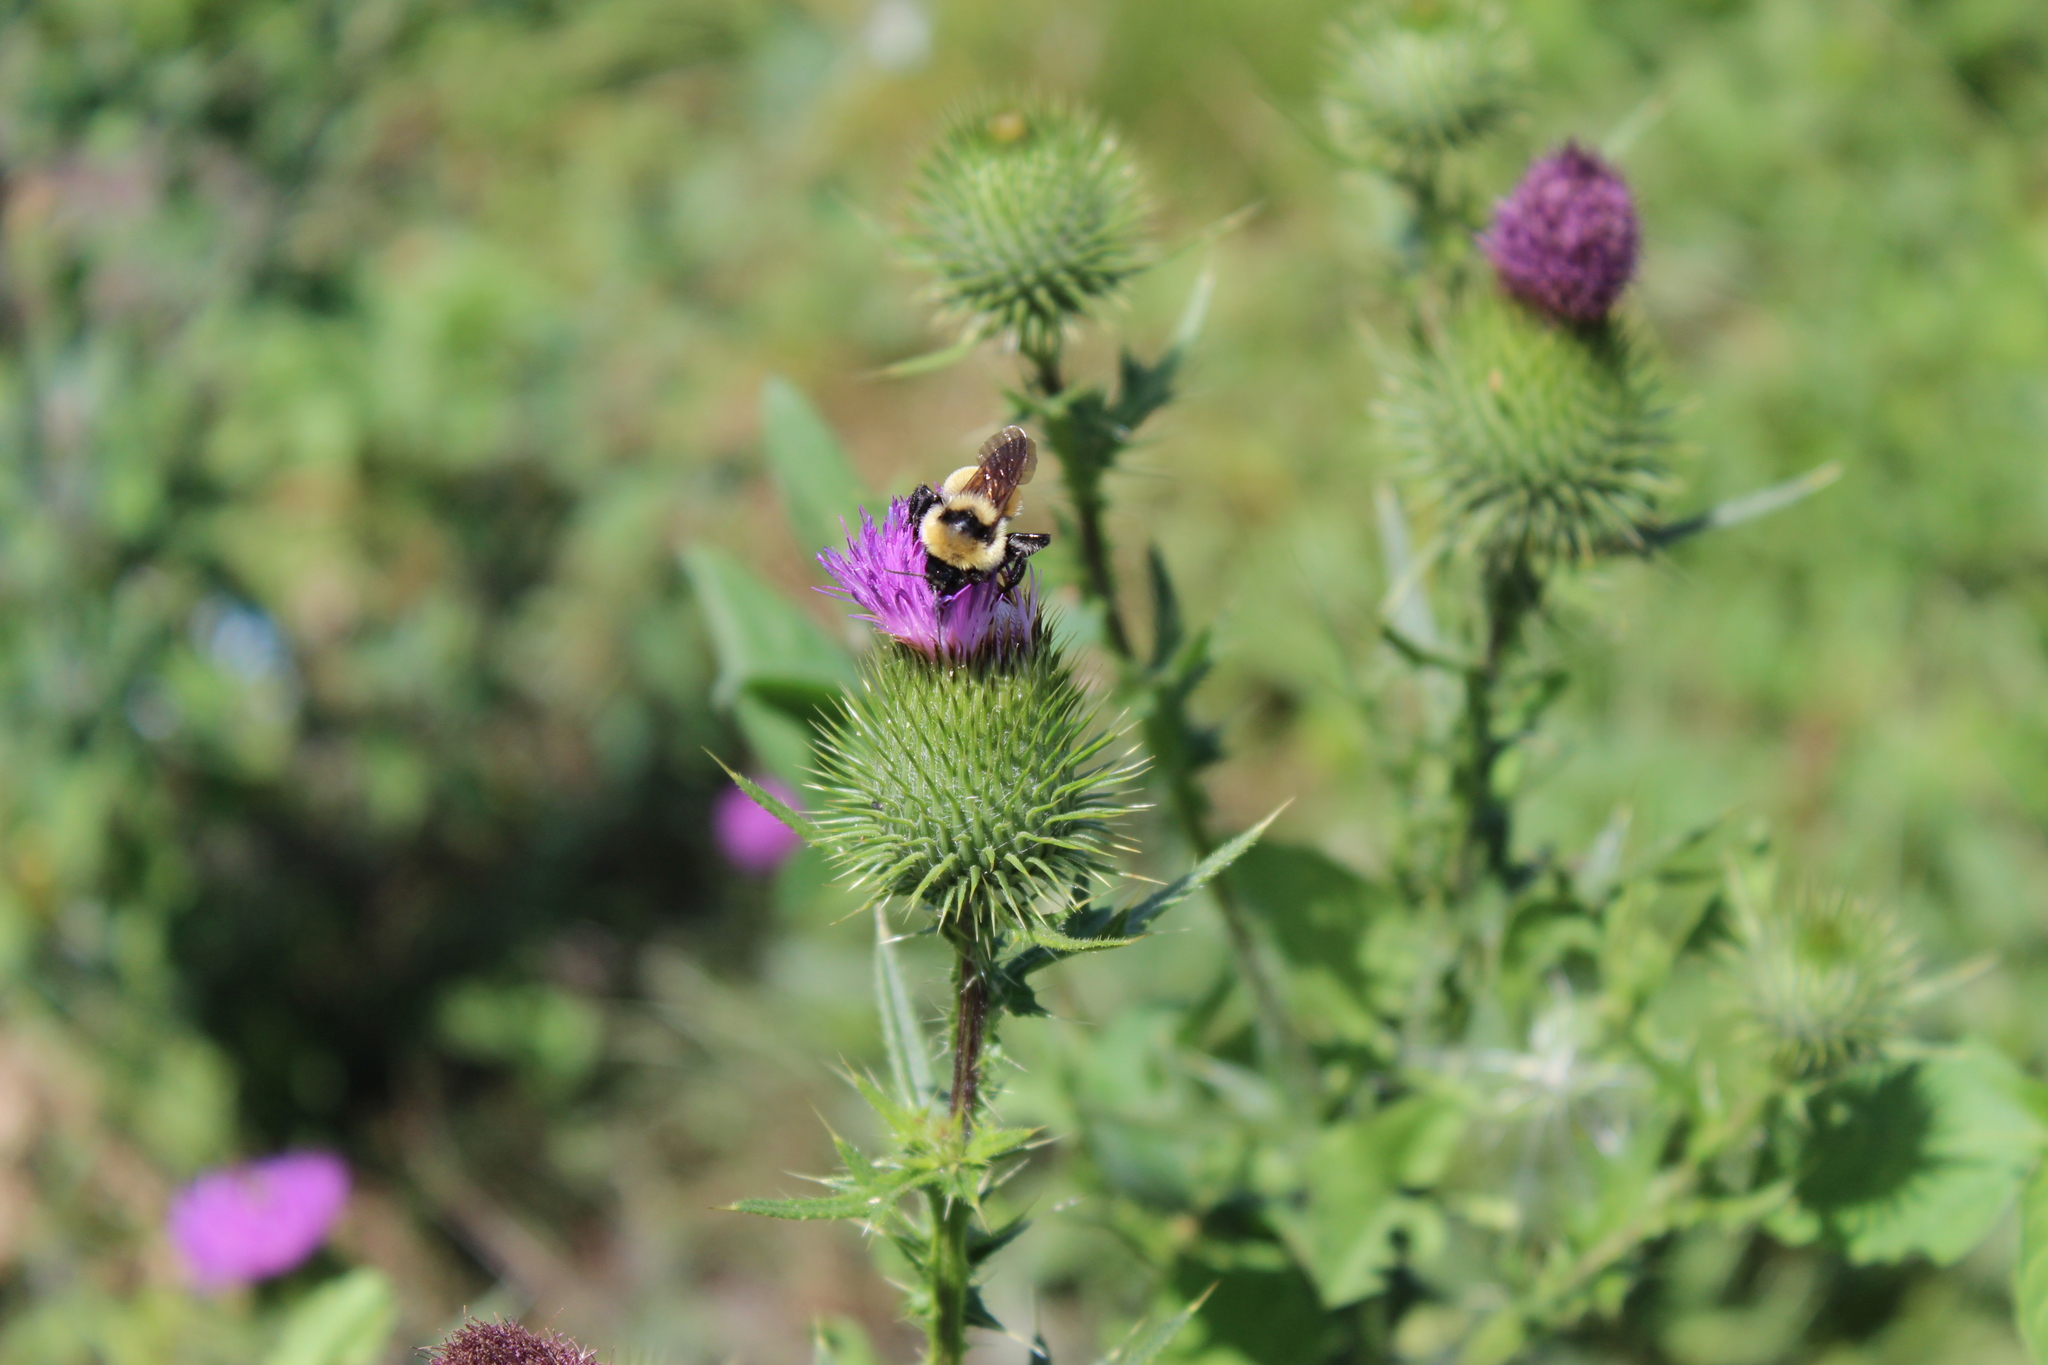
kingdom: Animalia
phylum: Arthropoda
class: Insecta
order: Hymenoptera
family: Apidae
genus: Bombus
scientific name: Bombus fervidus
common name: Yellow bumble bee
